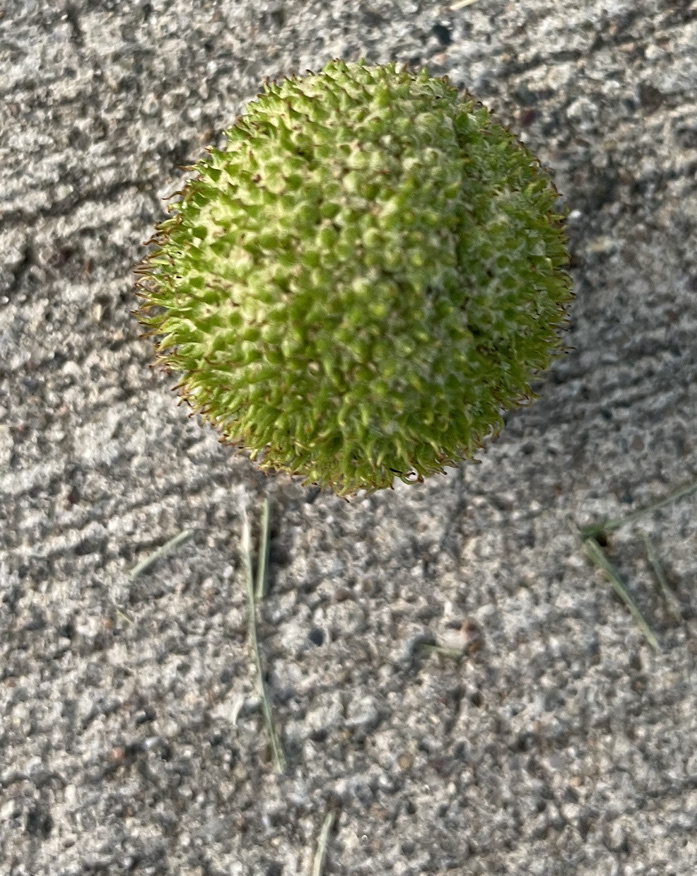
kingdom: Plantae
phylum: Tracheophyta
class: Magnoliopsida
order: Proteales
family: Platanaceae
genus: Platanus
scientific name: Platanus occidentalis
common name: American sycamore
